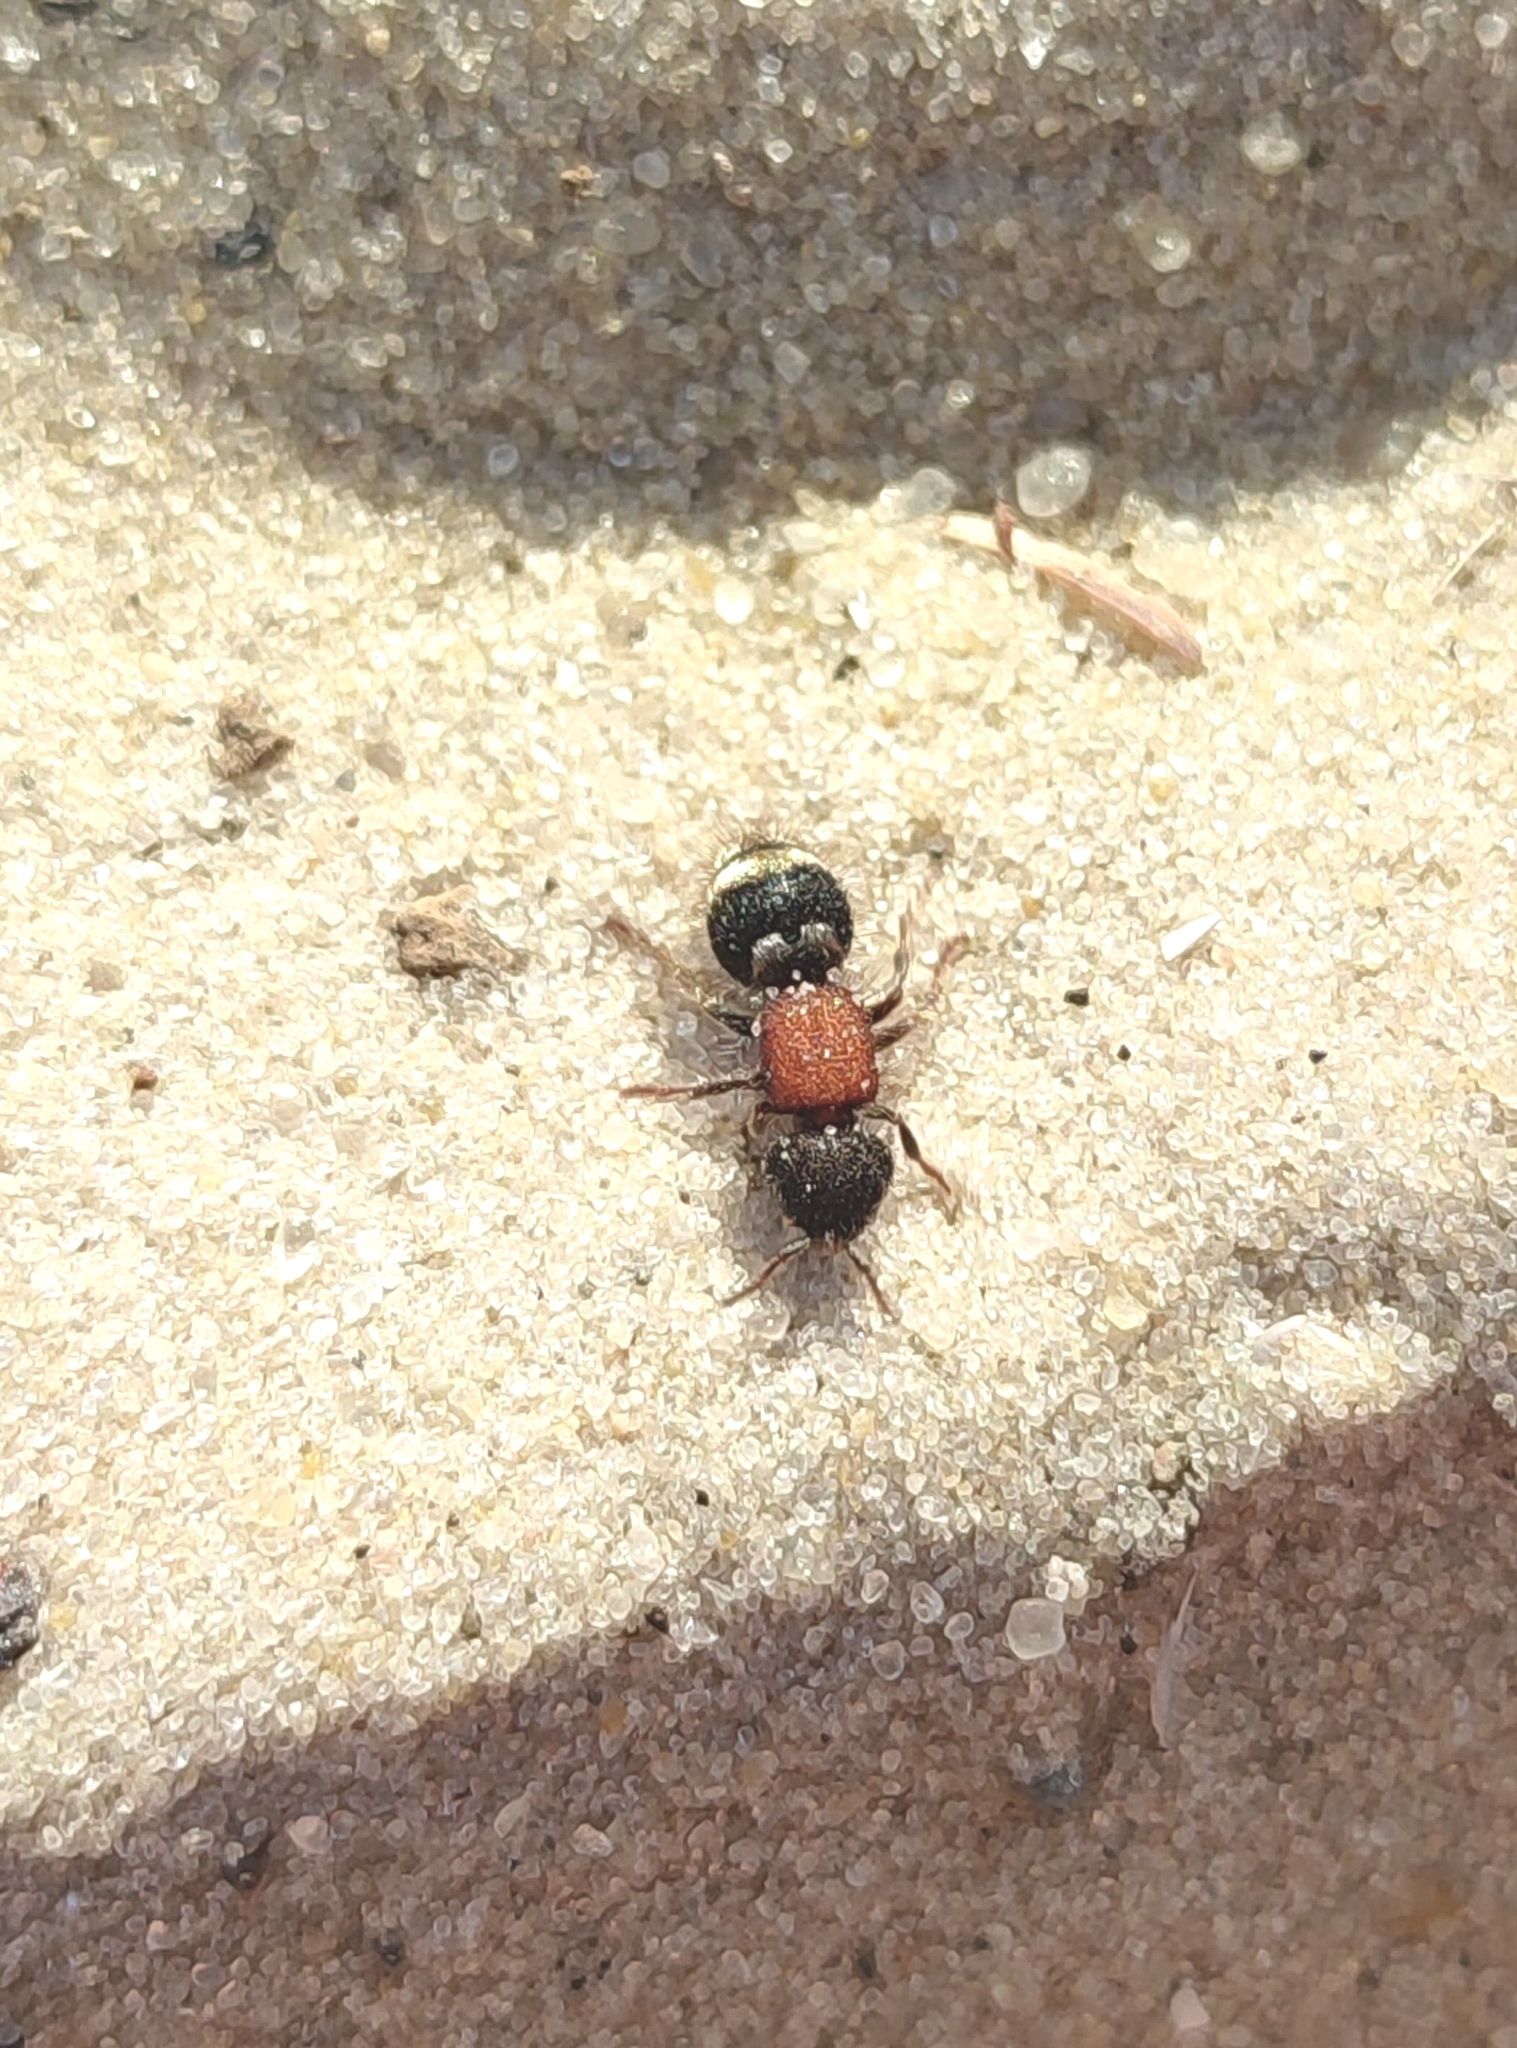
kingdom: Animalia
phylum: Arthropoda
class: Insecta
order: Hymenoptera
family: Mutillidae
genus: Tropidotilla
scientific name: Tropidotilla litoralis
